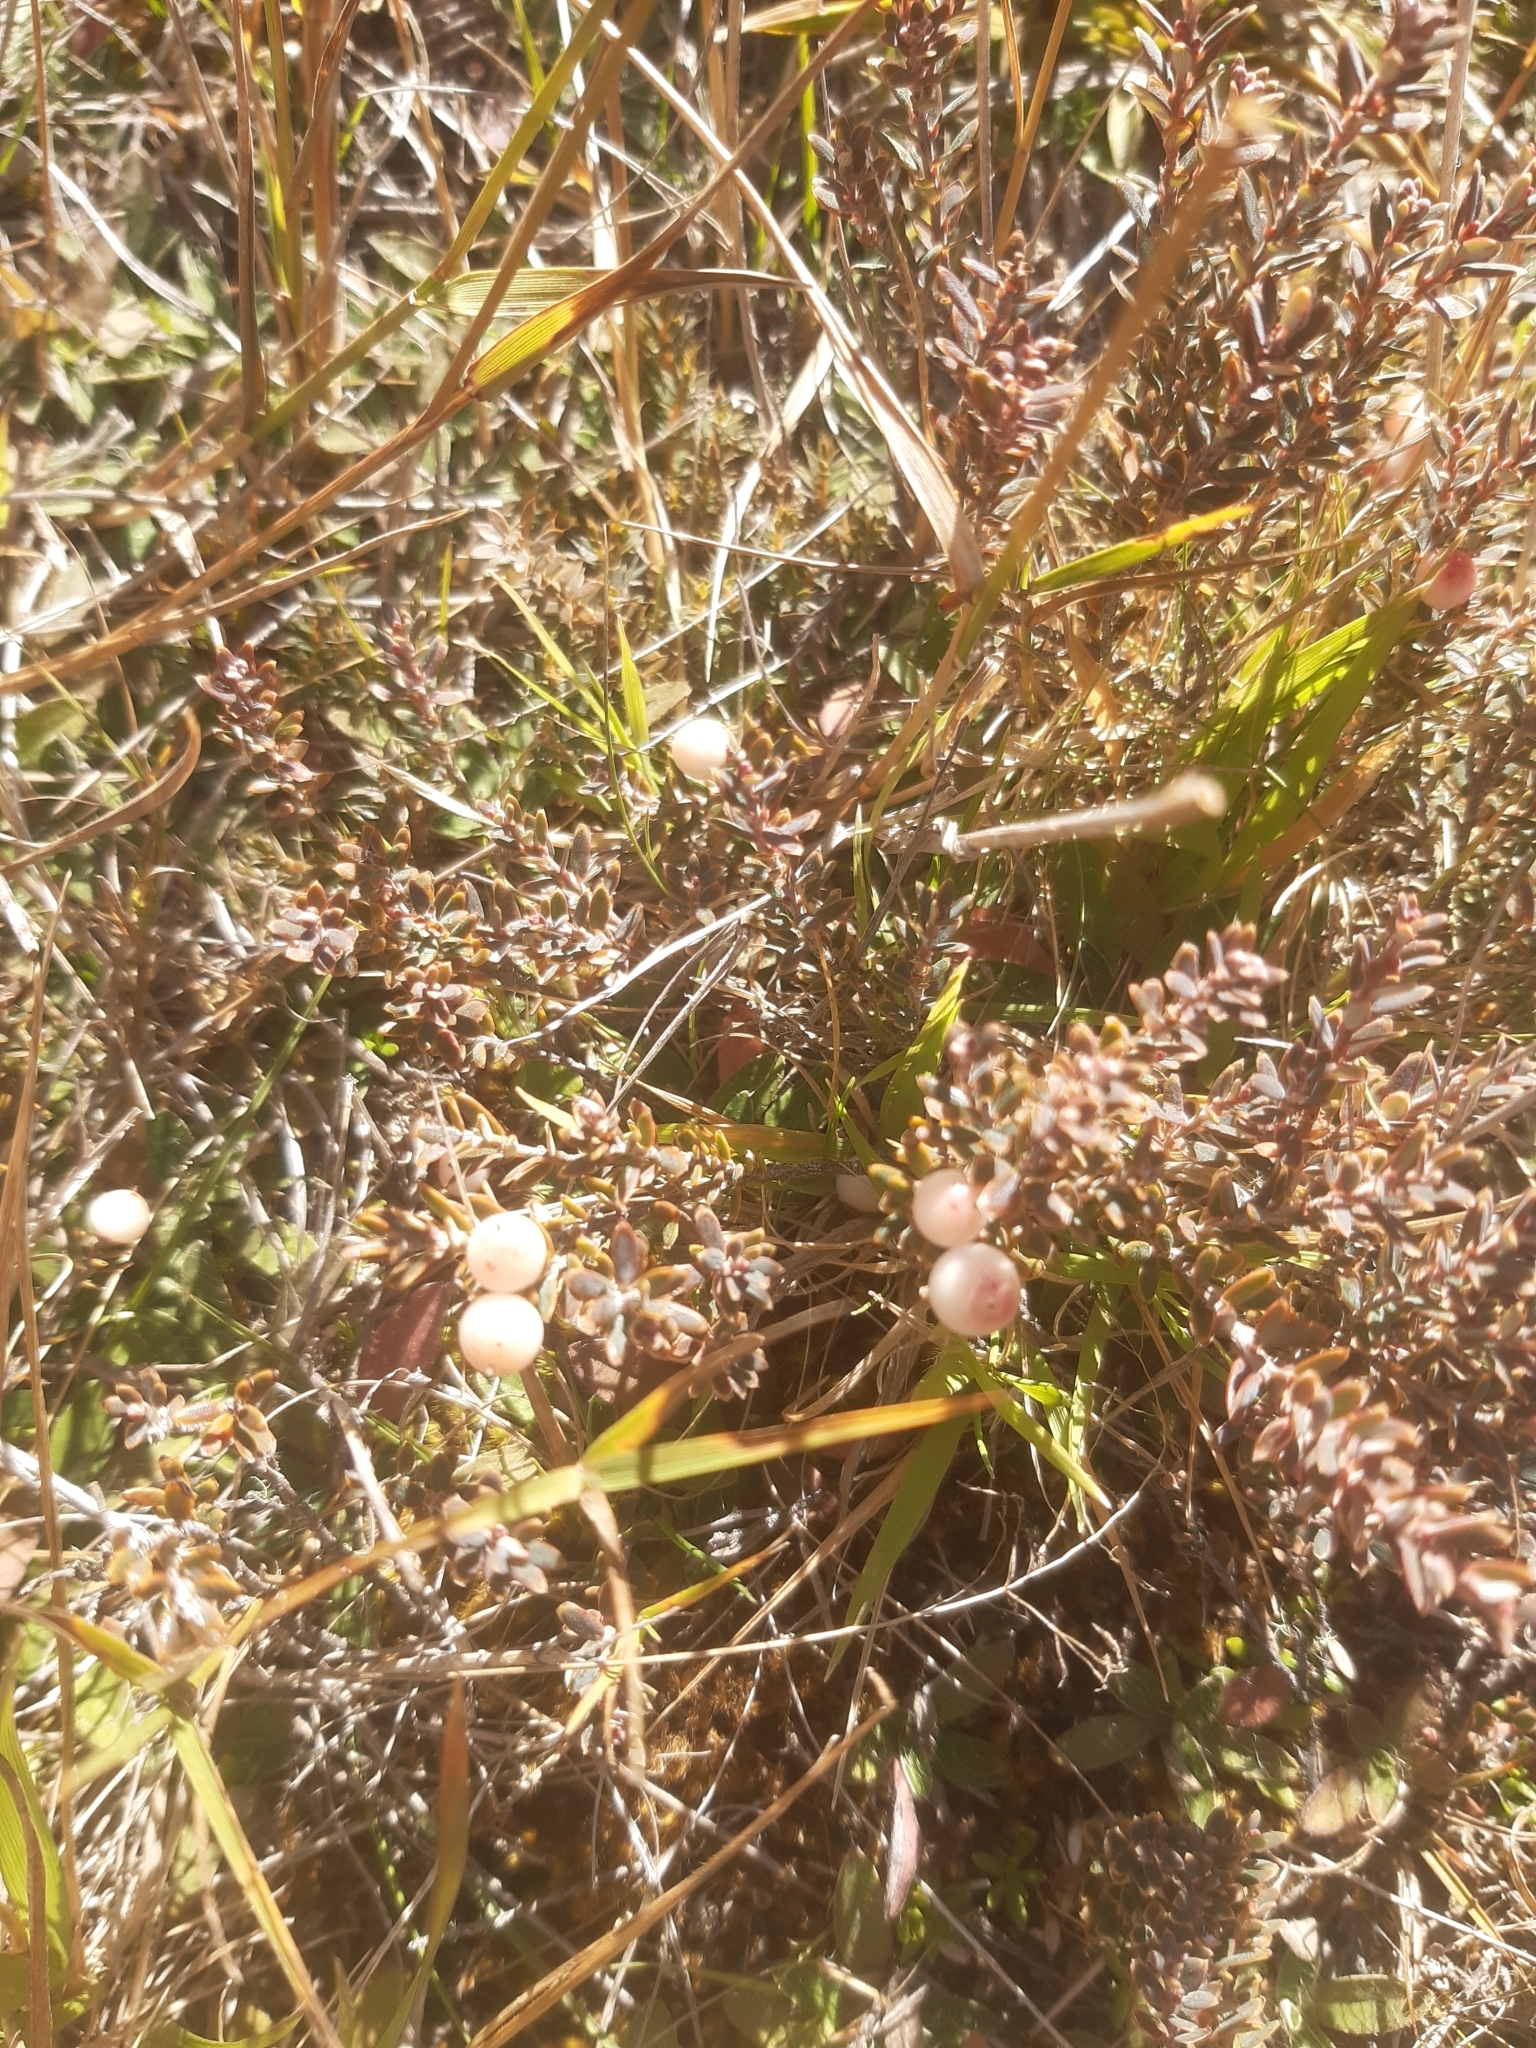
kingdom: Plantae
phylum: Tracheophyta
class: Magnoliopsida
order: Ericales
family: Ericaceae
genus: Acrothamnus
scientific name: Acrothamnus colensoi
